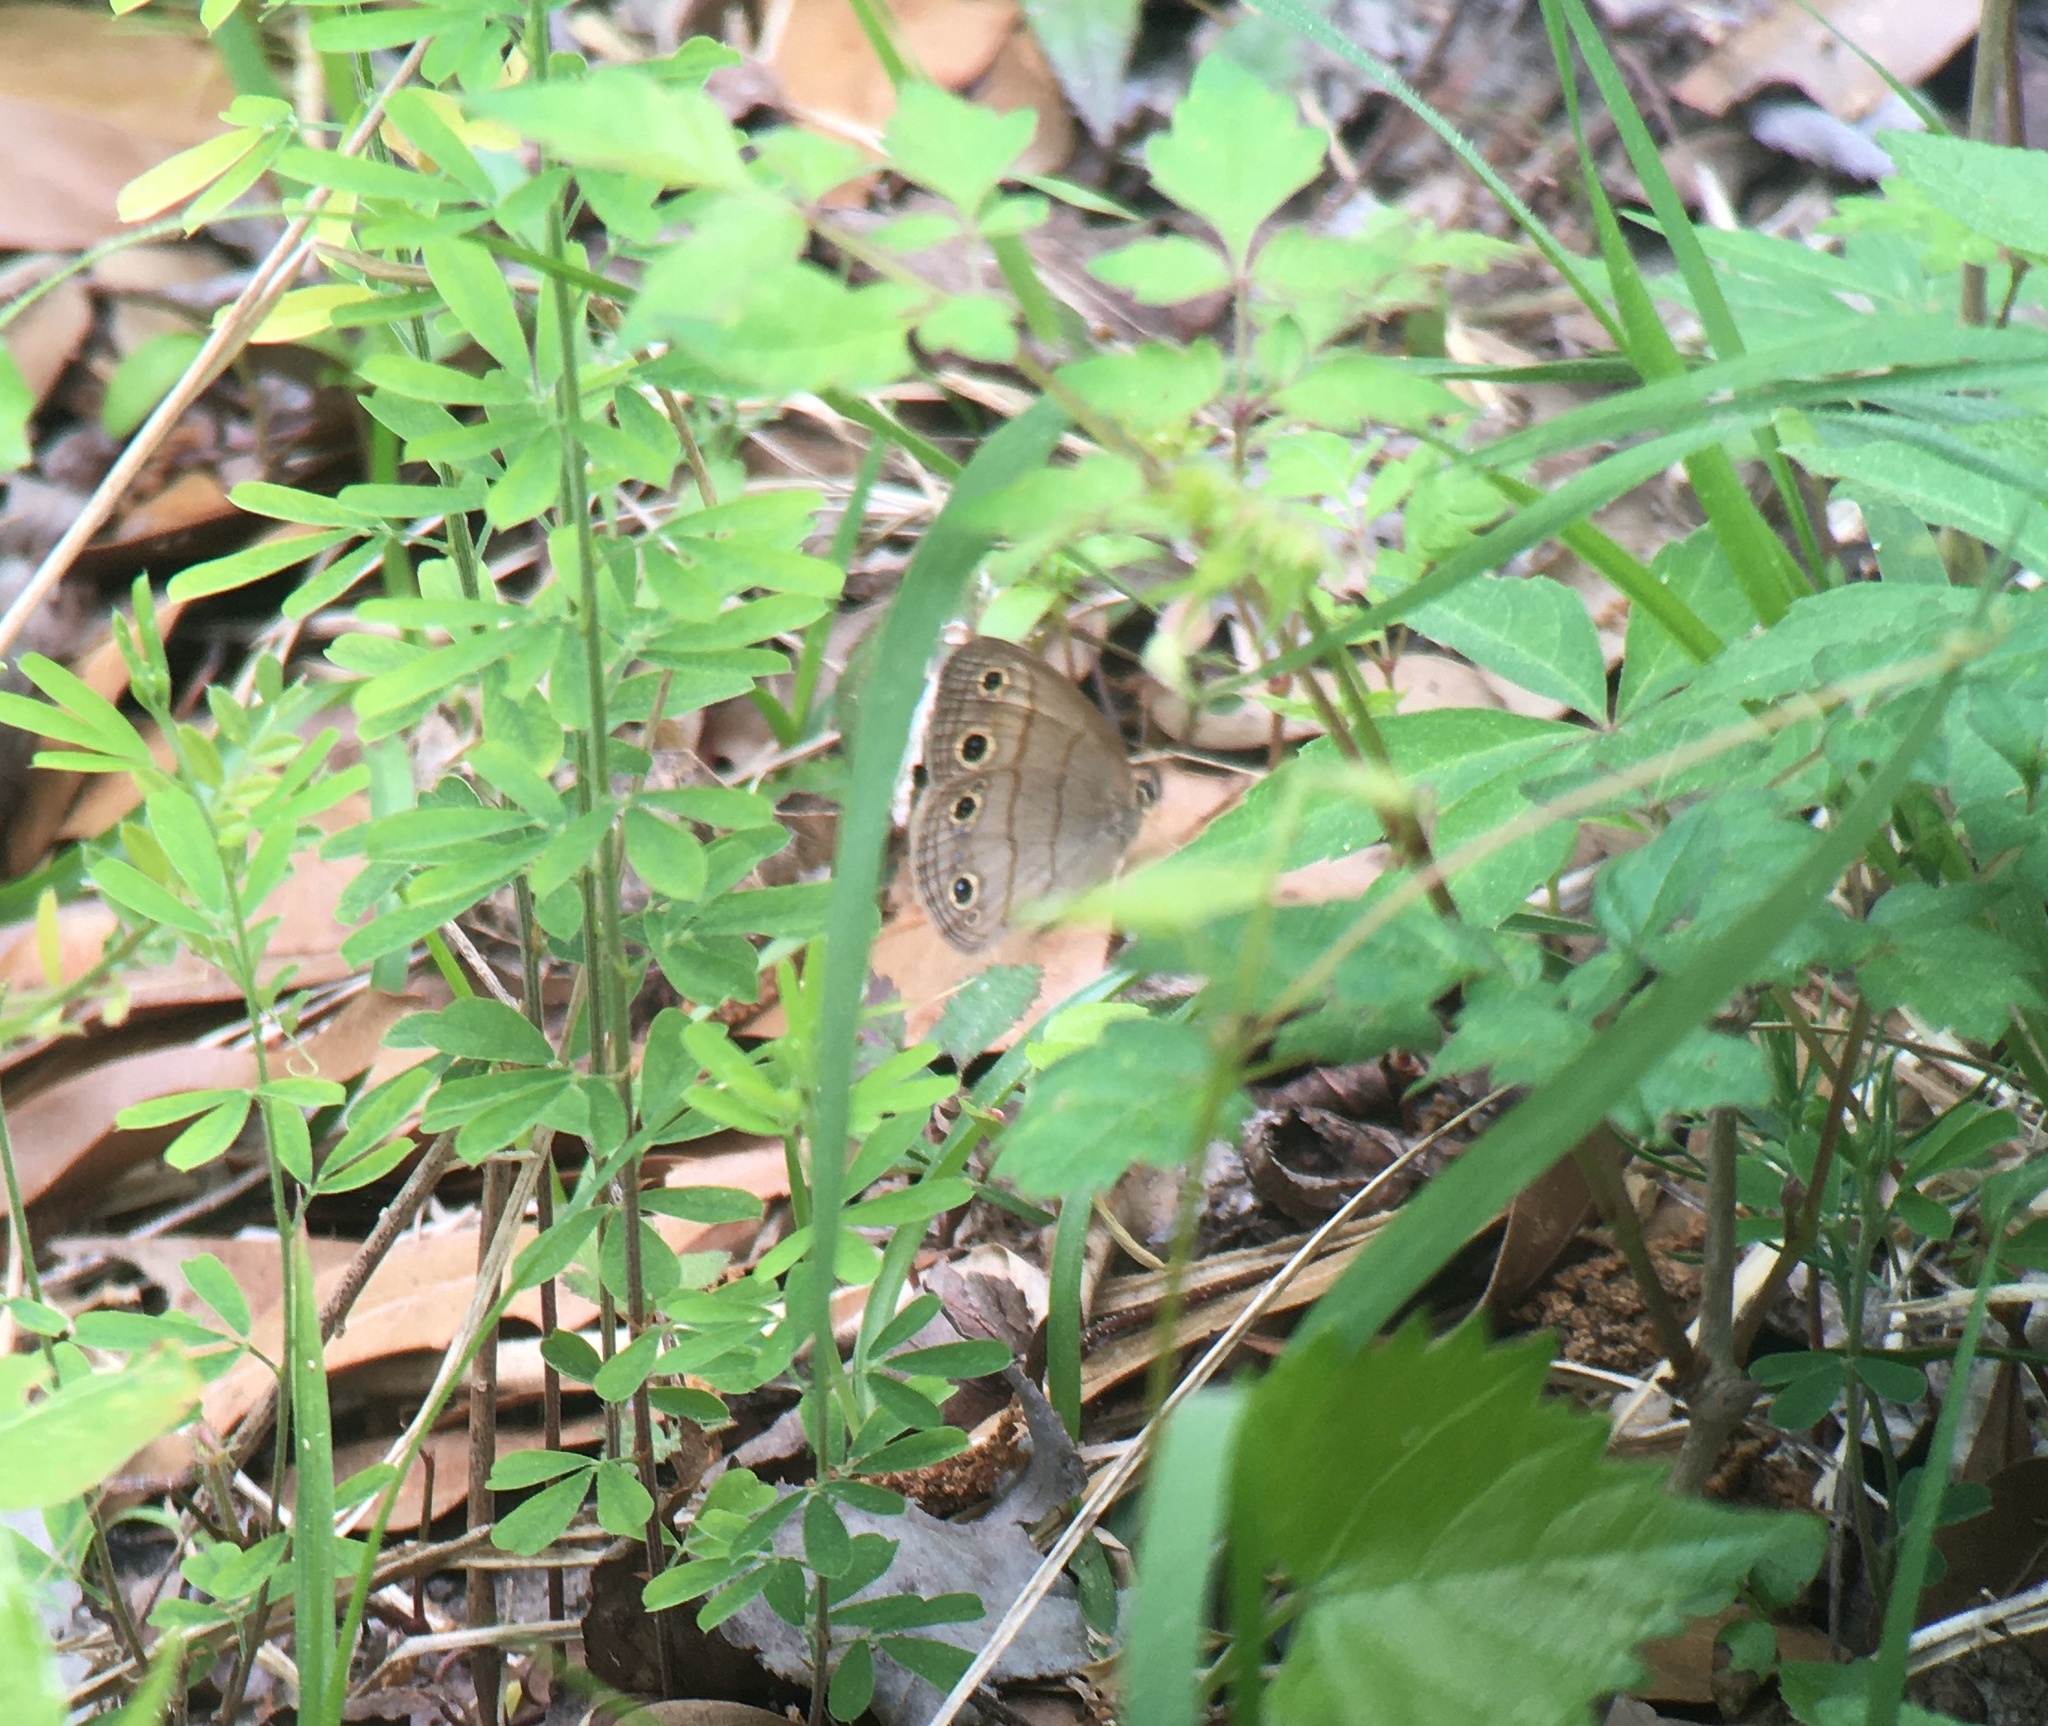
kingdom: Animalia
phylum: Arthropoda
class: Insecta
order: Lepidoptera
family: Nymphalidae
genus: Euptychia
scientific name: Euptychia cymela
